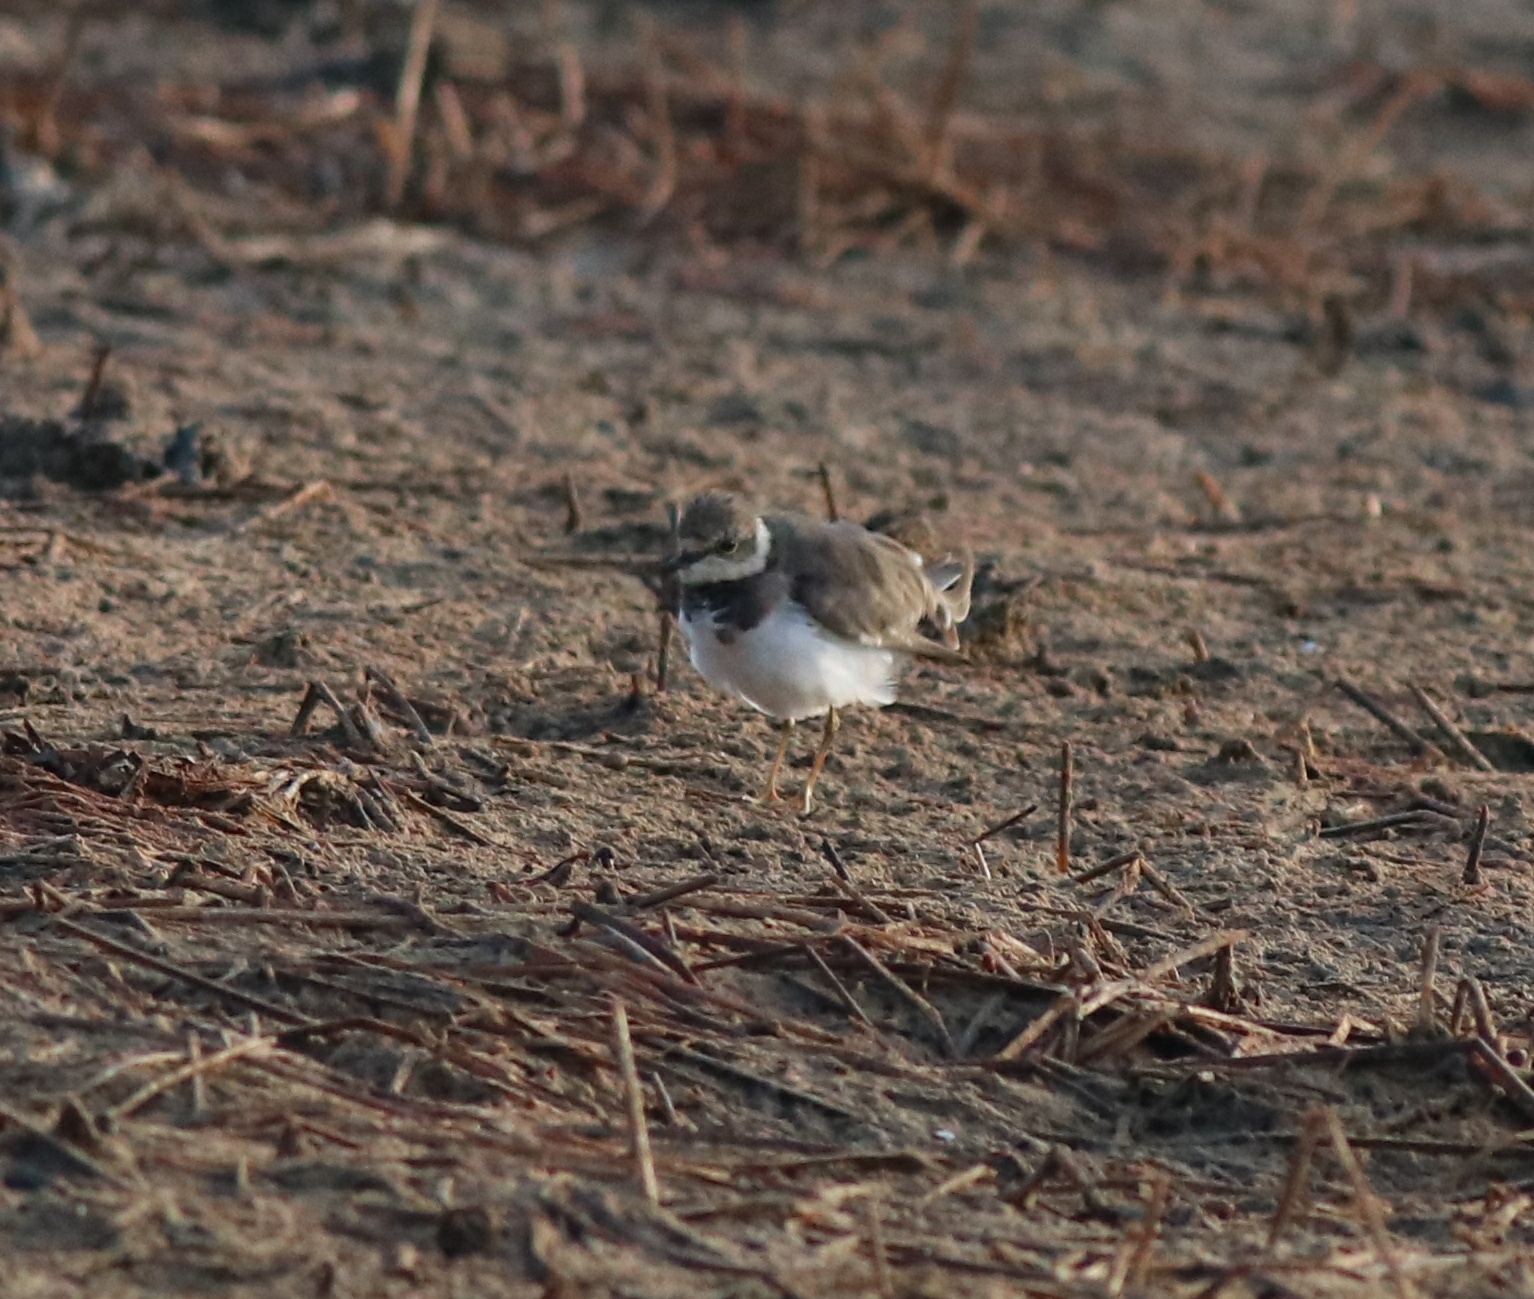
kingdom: Animalia
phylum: Chordata
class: Aves
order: Charadriiformes
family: Charadriidae
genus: Charadrius
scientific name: Charadrius dubius
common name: Little ringed plover
